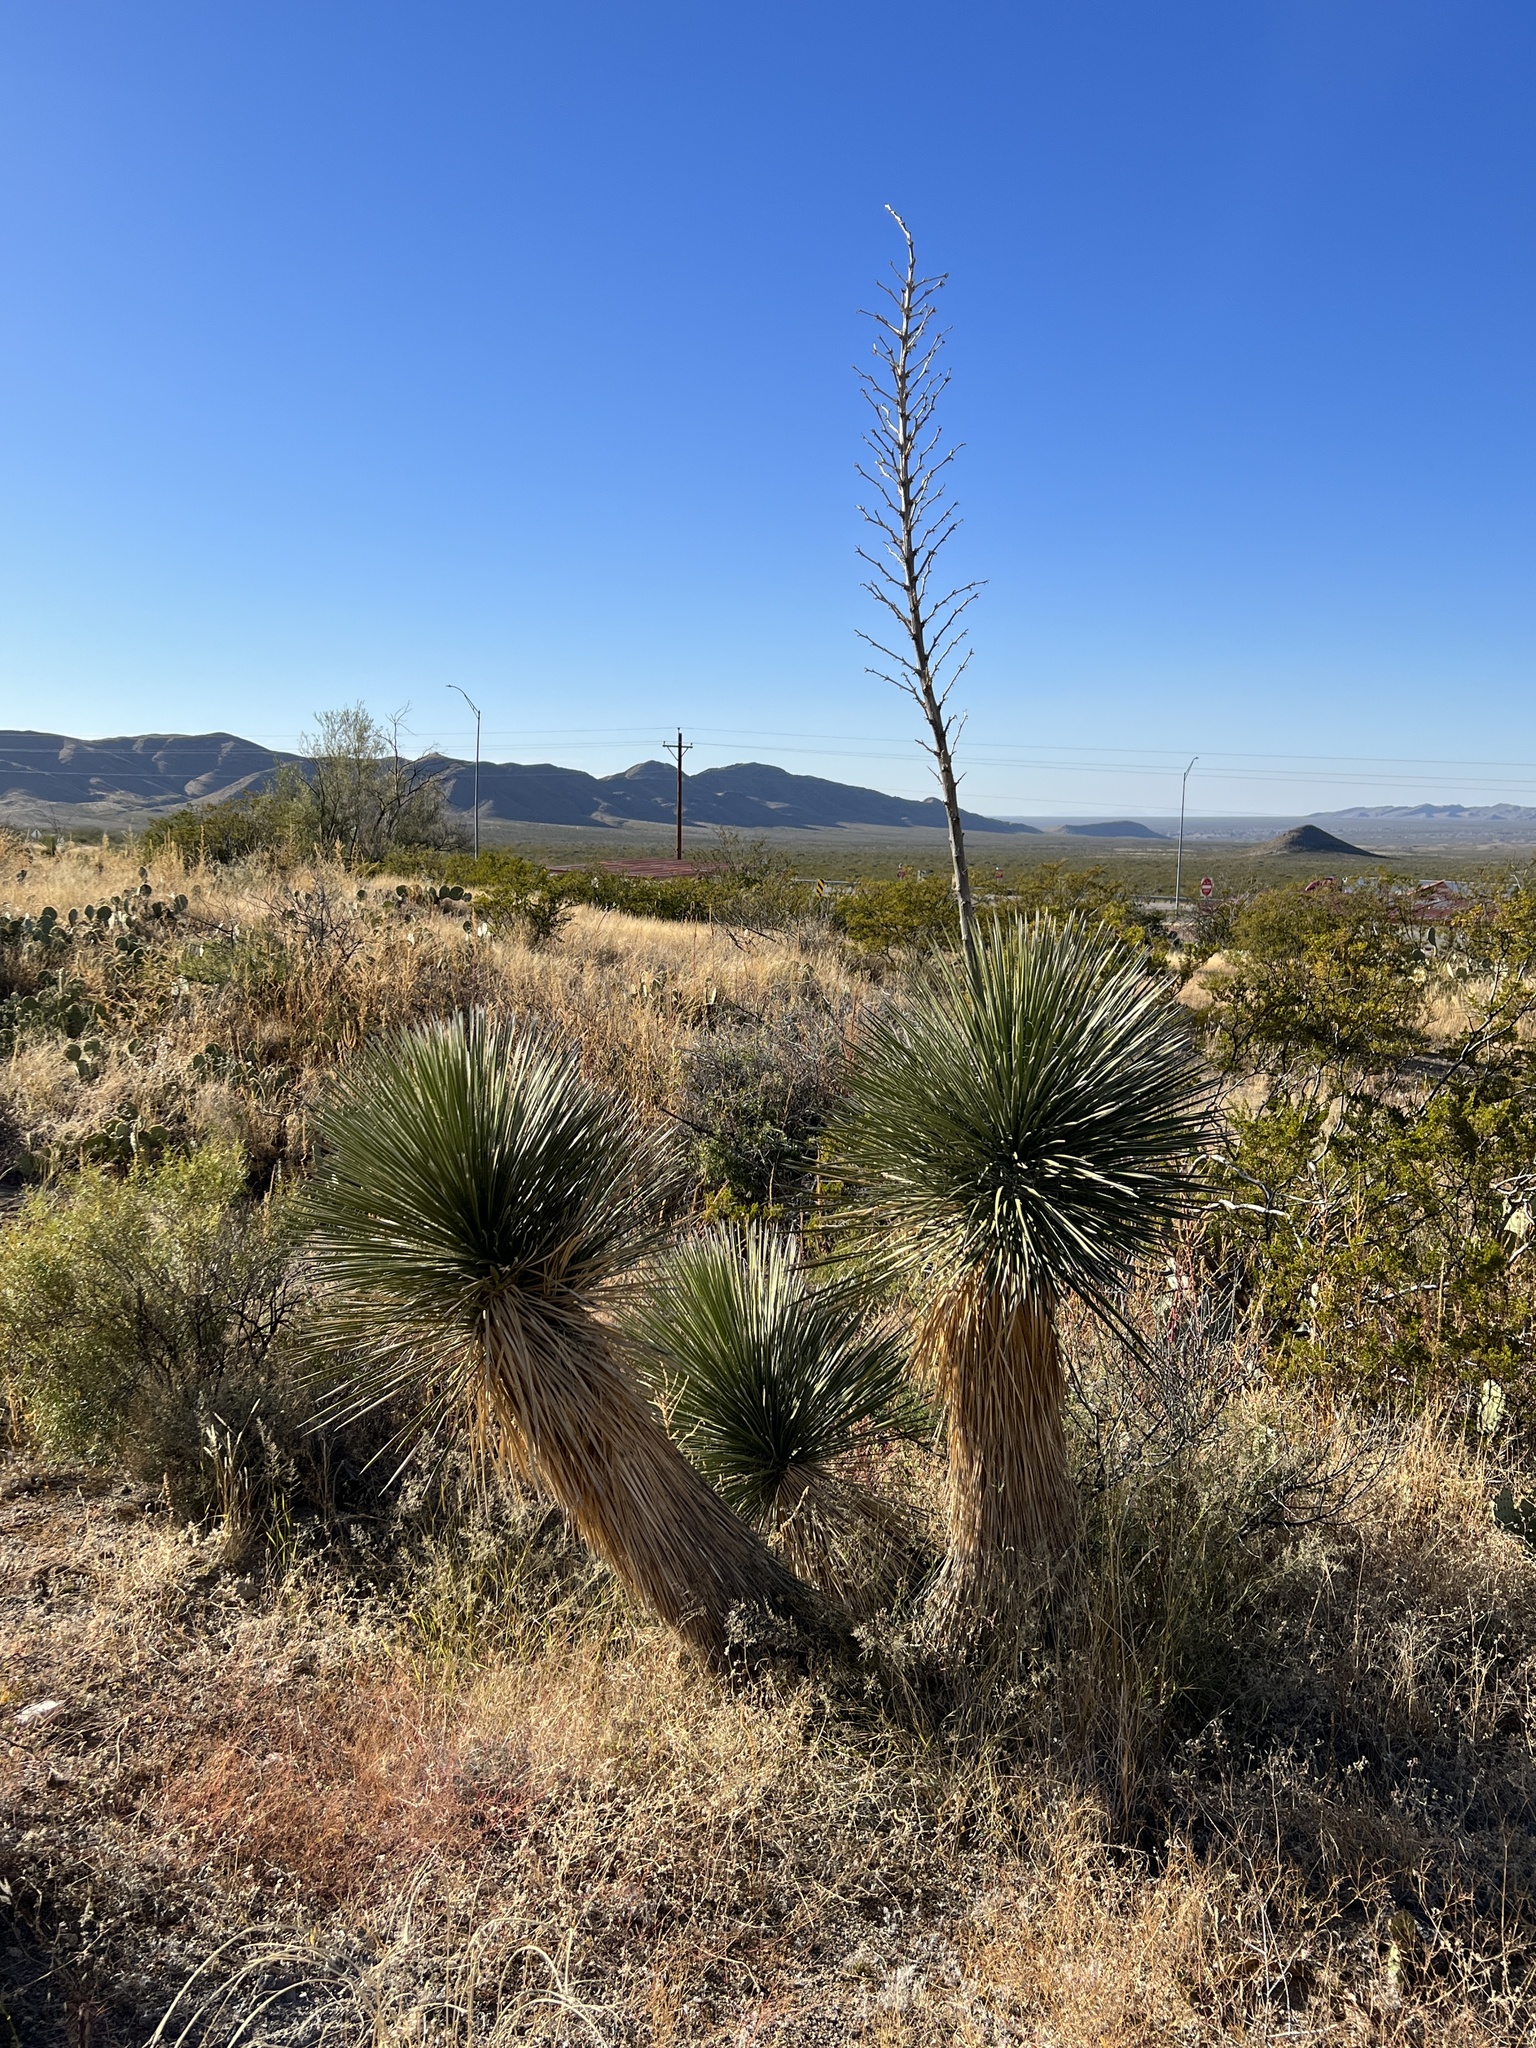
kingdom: Plantae
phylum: Tracheophyta
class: Liliopsida
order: Asparagales
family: Asparagaceae
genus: Yucca
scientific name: Yucca elata
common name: Palmella
